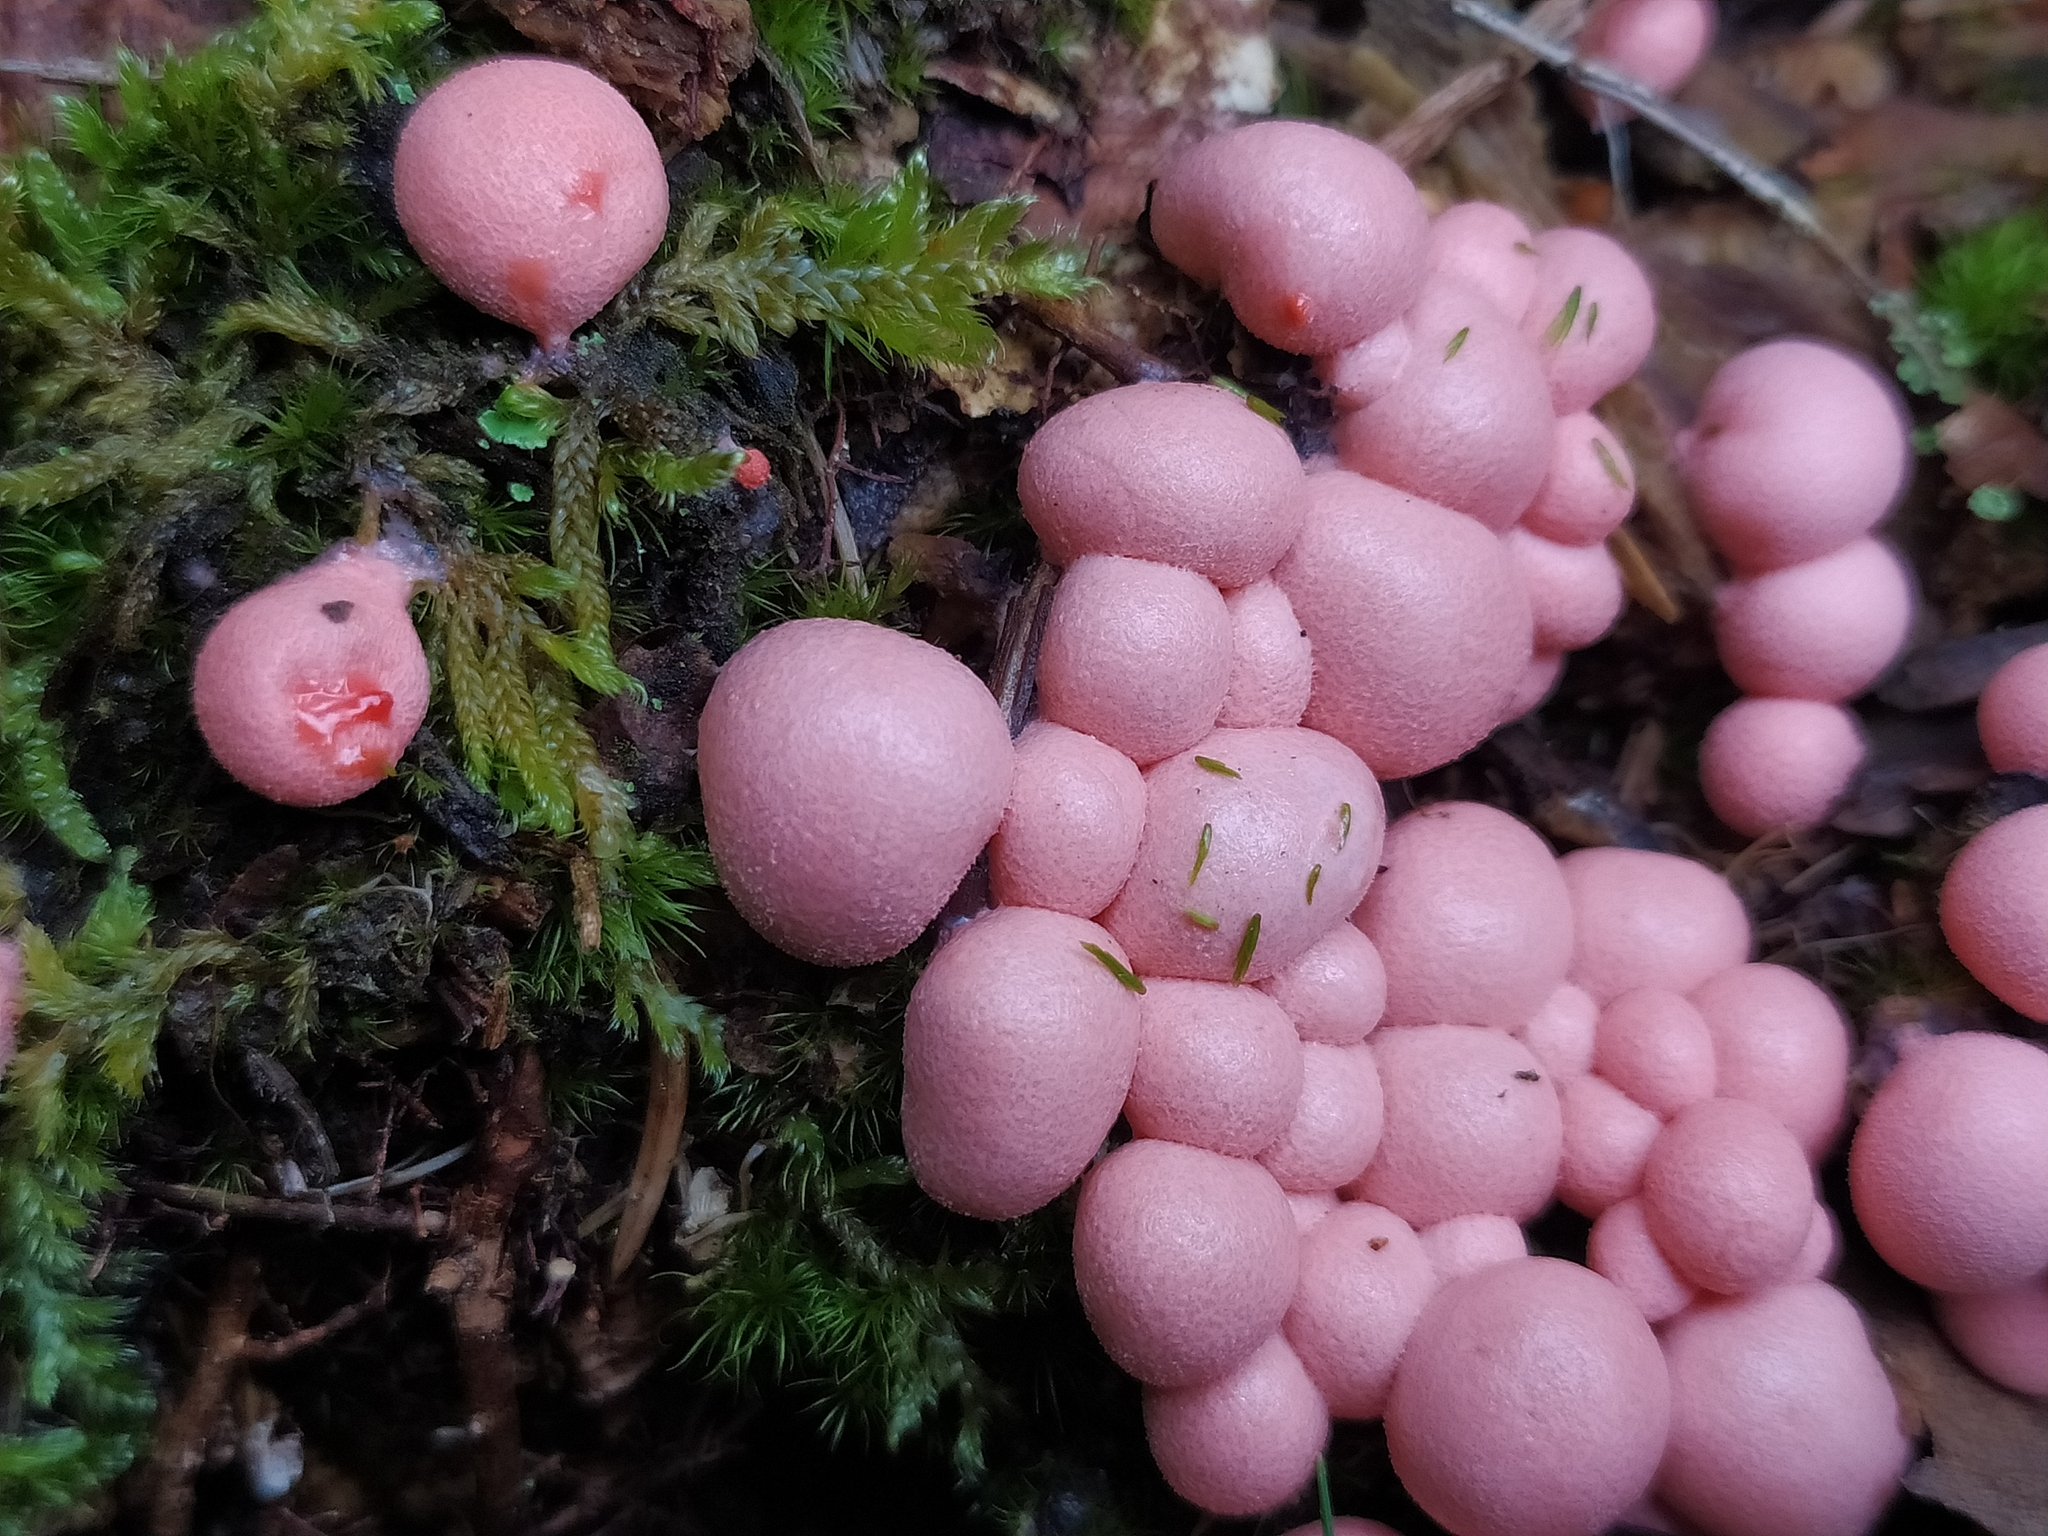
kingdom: Protozoa
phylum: Mycetozoa
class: Myxomycetes
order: Cribrariales
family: Tubiferaceae
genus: Lycogala
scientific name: Lycogala epidendrum
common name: Wolf's milk
